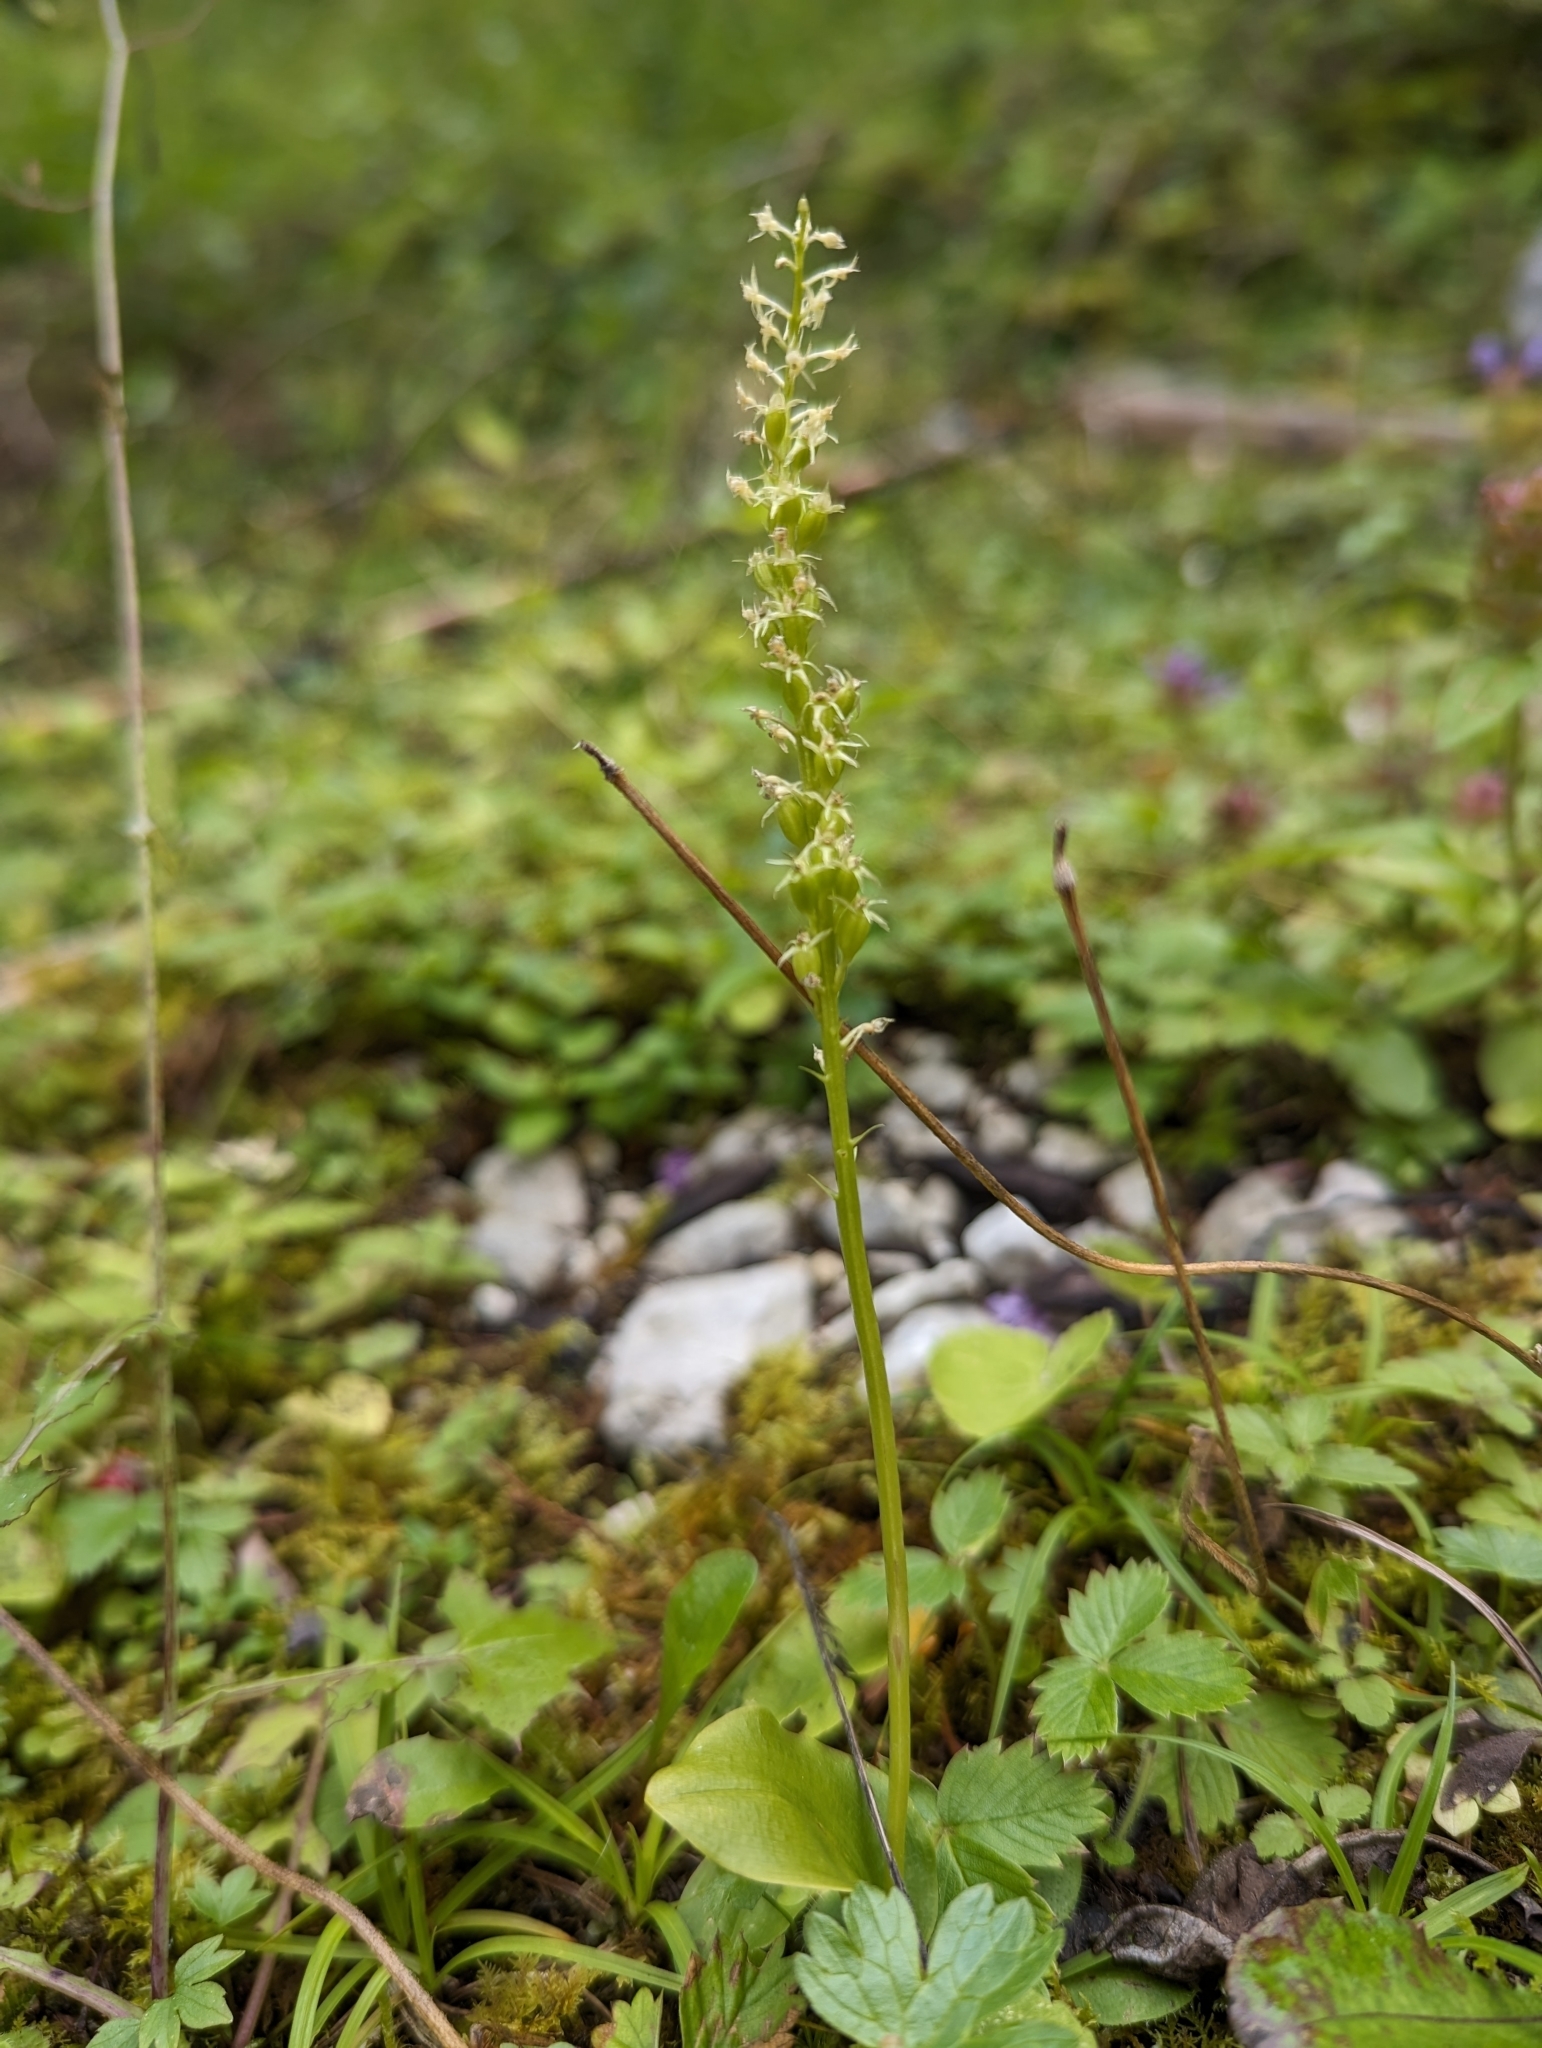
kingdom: Plantae
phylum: Tracheophyta
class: Liliopsida
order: Asparagales
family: Orchidaceae
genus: Malaxis
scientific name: Malaxis monophyllos
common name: White adder's-mouth
